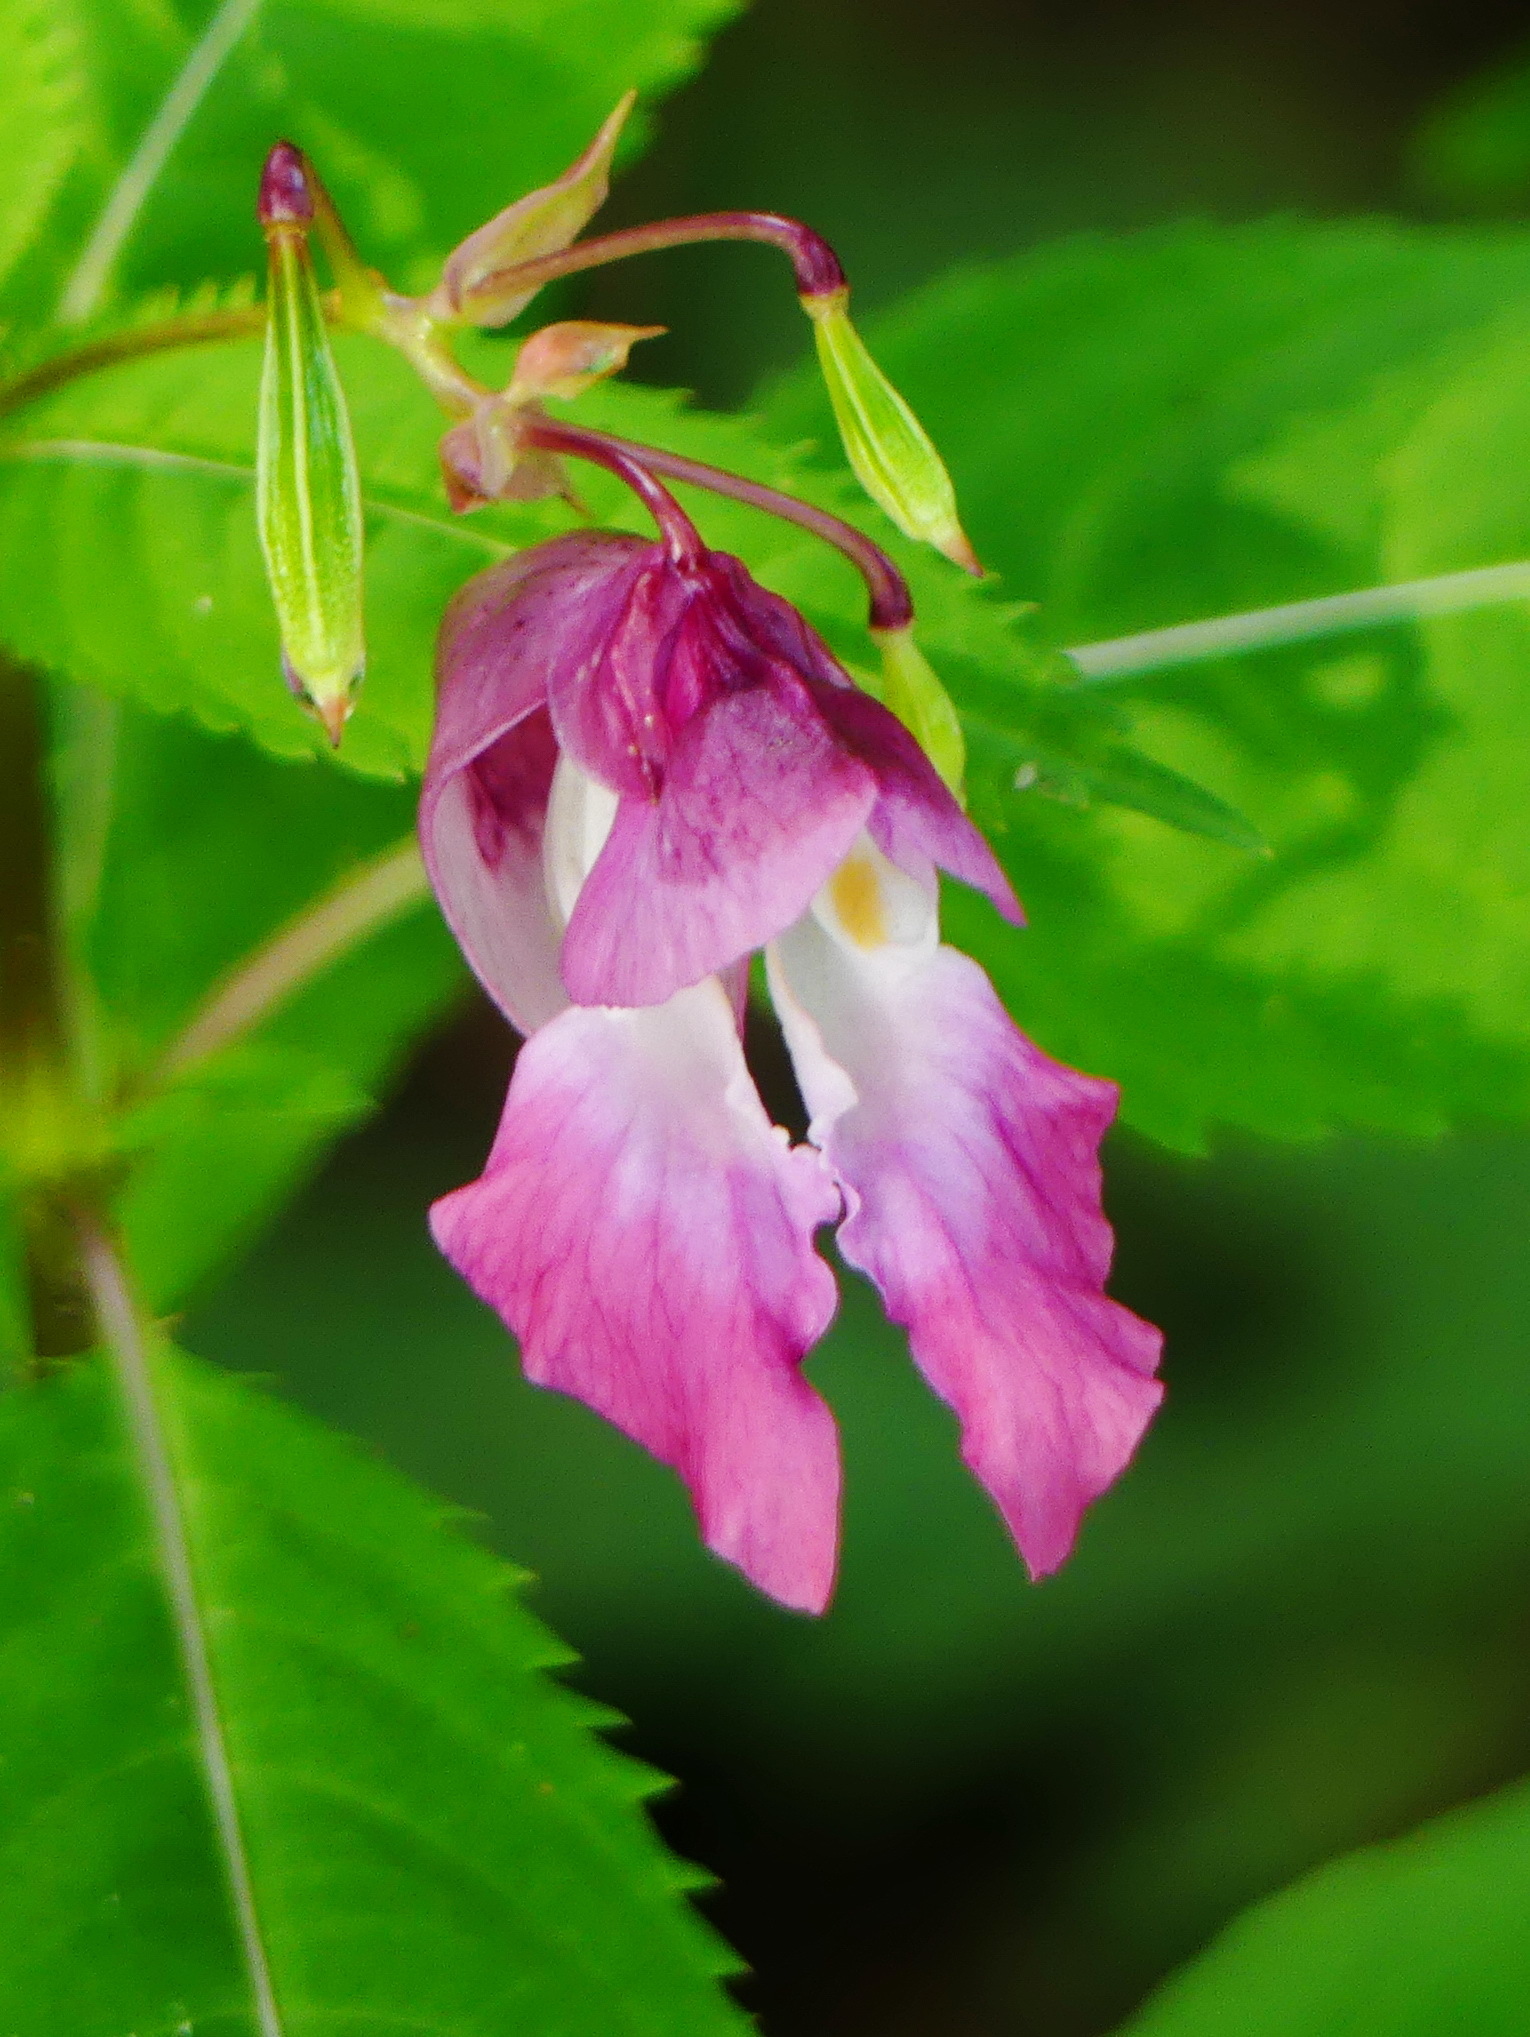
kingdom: Plantae
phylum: Tracheophyta
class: Magnoliopsida
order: Ericales
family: Balsaminaceae
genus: Impatiens
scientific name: Impatiens glandulifera
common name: Himalayan balsam
